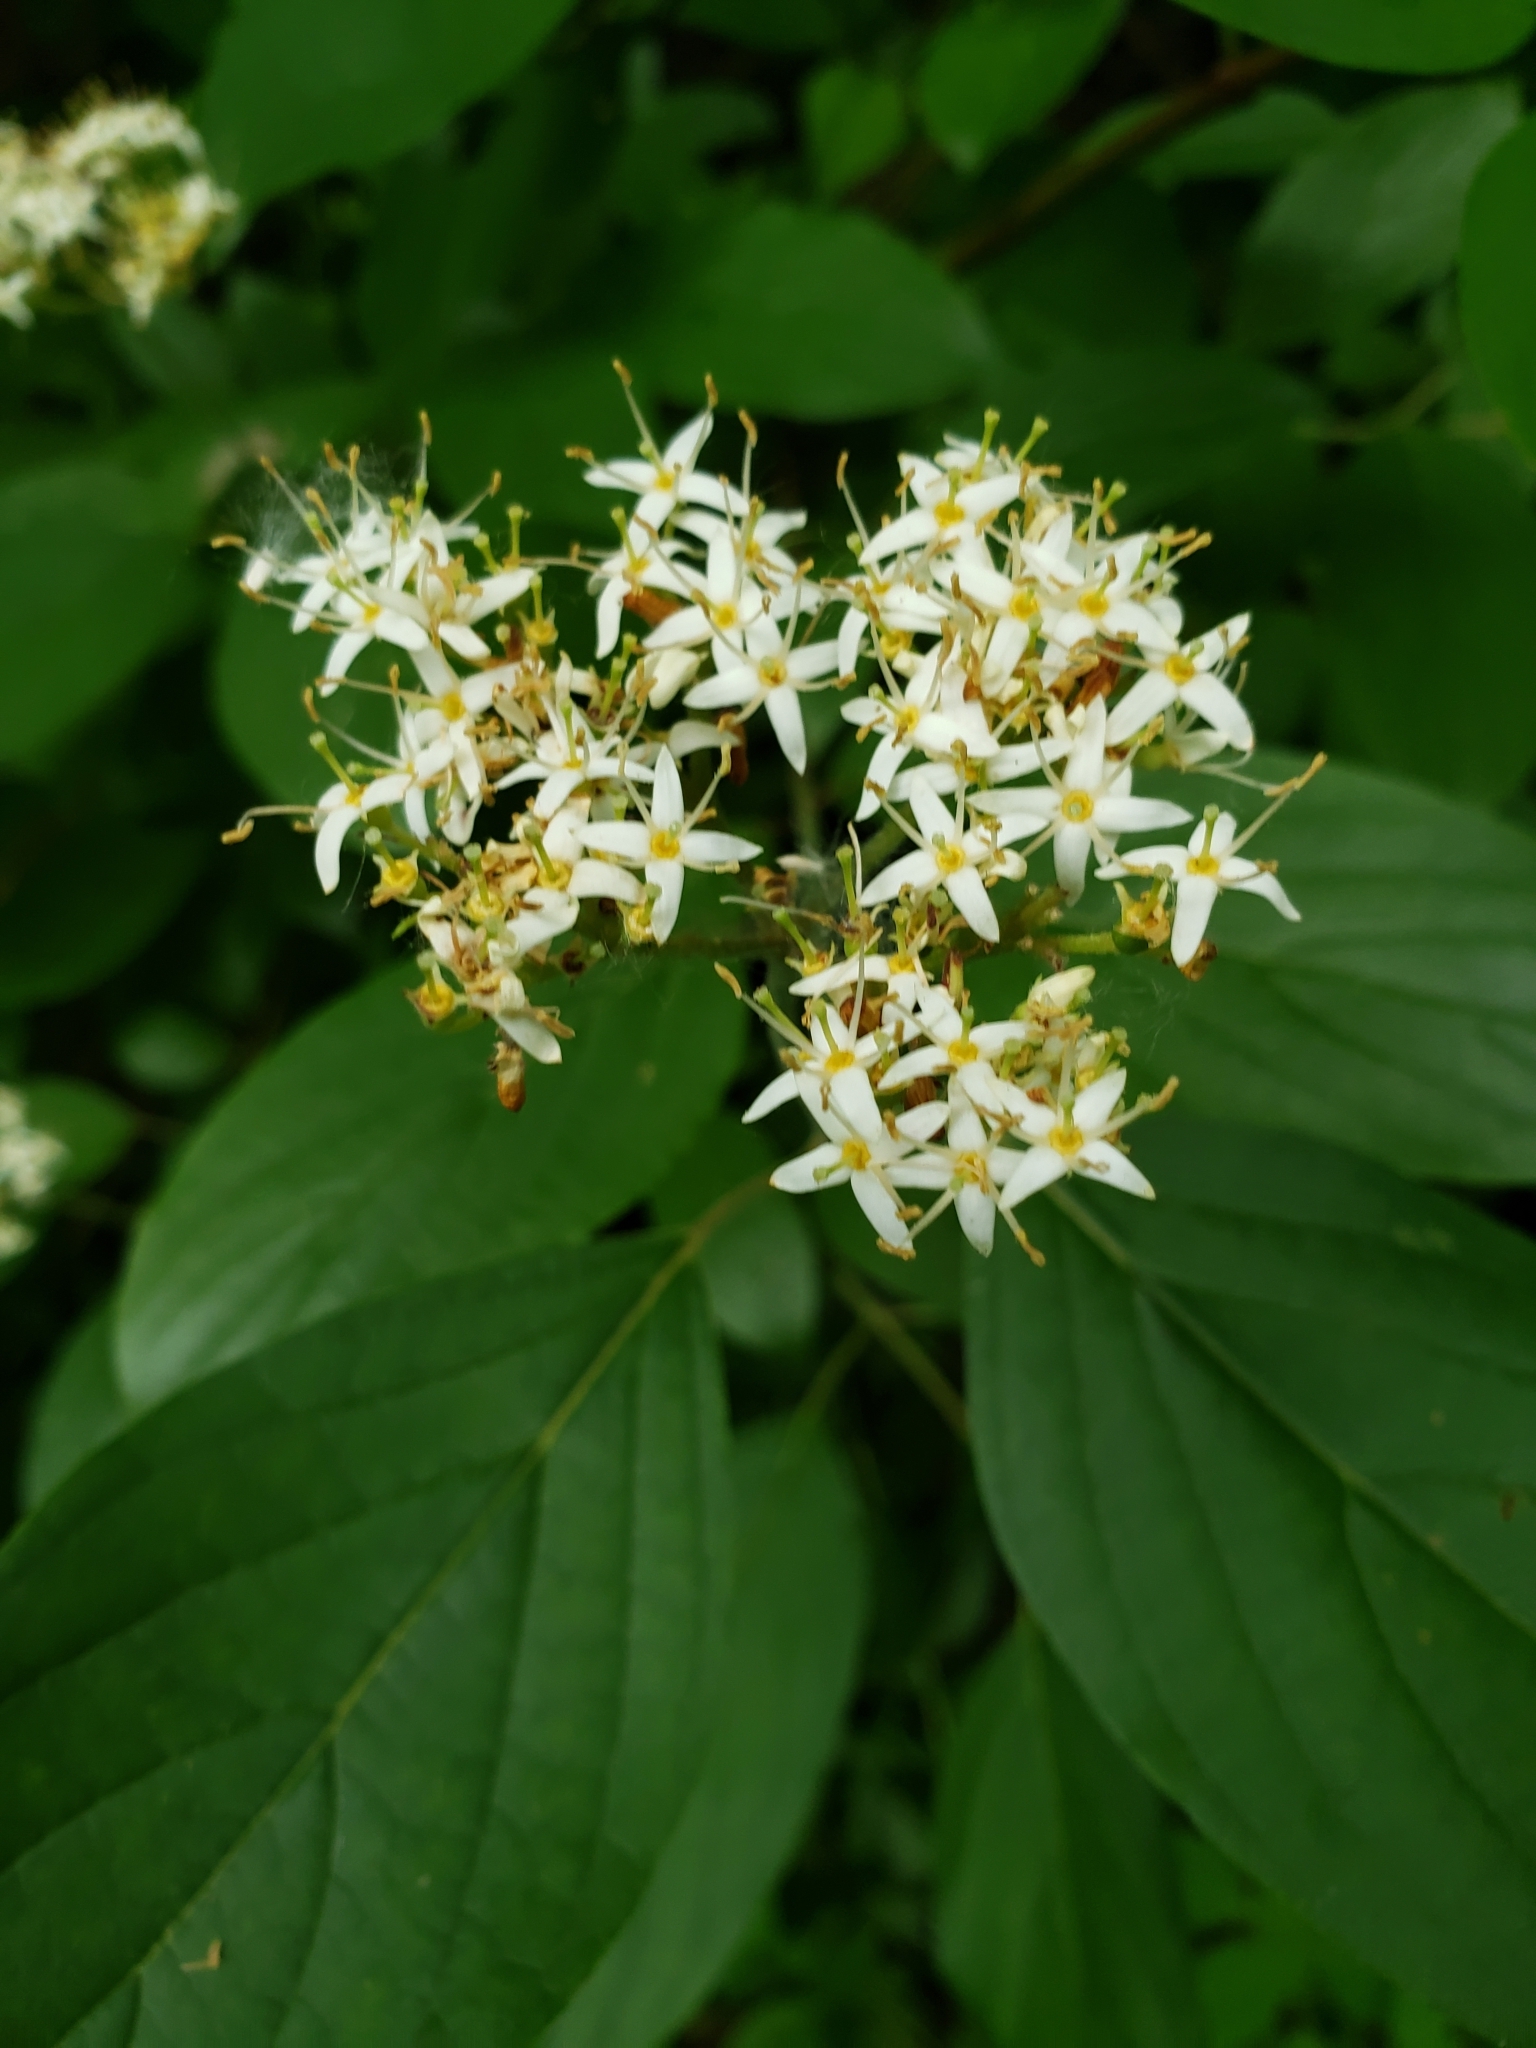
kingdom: Plantae
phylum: Tracheophyta
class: Magnoliopsida
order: Cornales
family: Cornaceae
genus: Cornus
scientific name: Cornus amomum
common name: Silky dogwood
